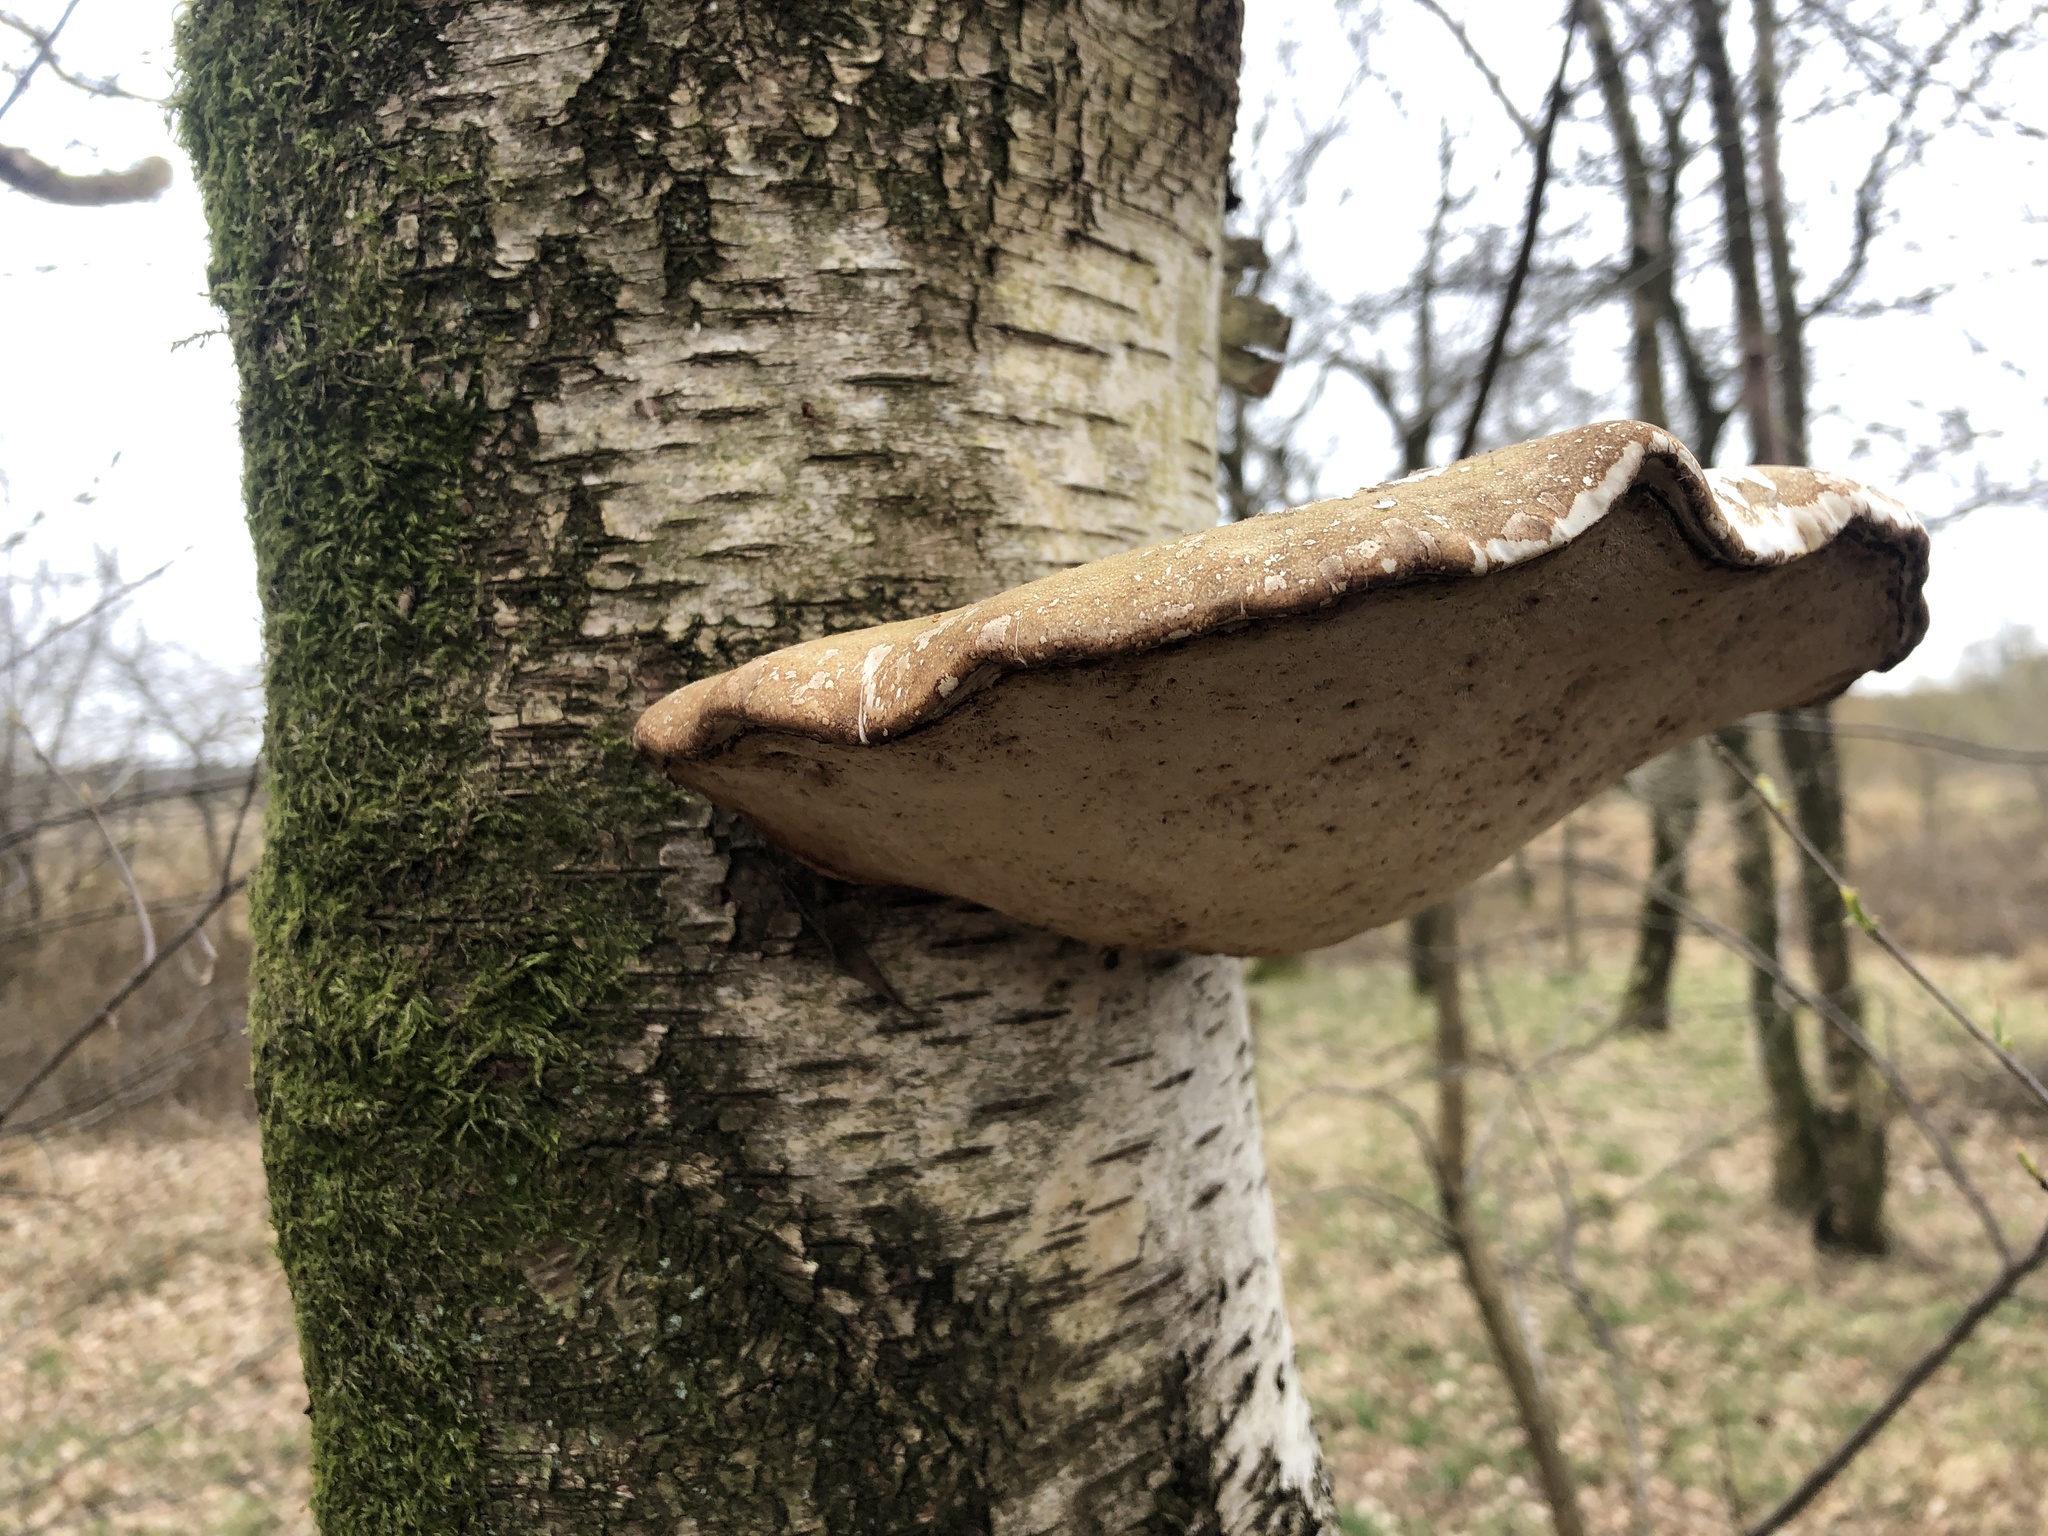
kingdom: Fungi
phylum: Basidiomycota
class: Agaricomycetes
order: Polyporales
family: Fomitopsidaceae
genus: Fomitopsis
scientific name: Fomitopsis betulina
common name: Birch polypore
